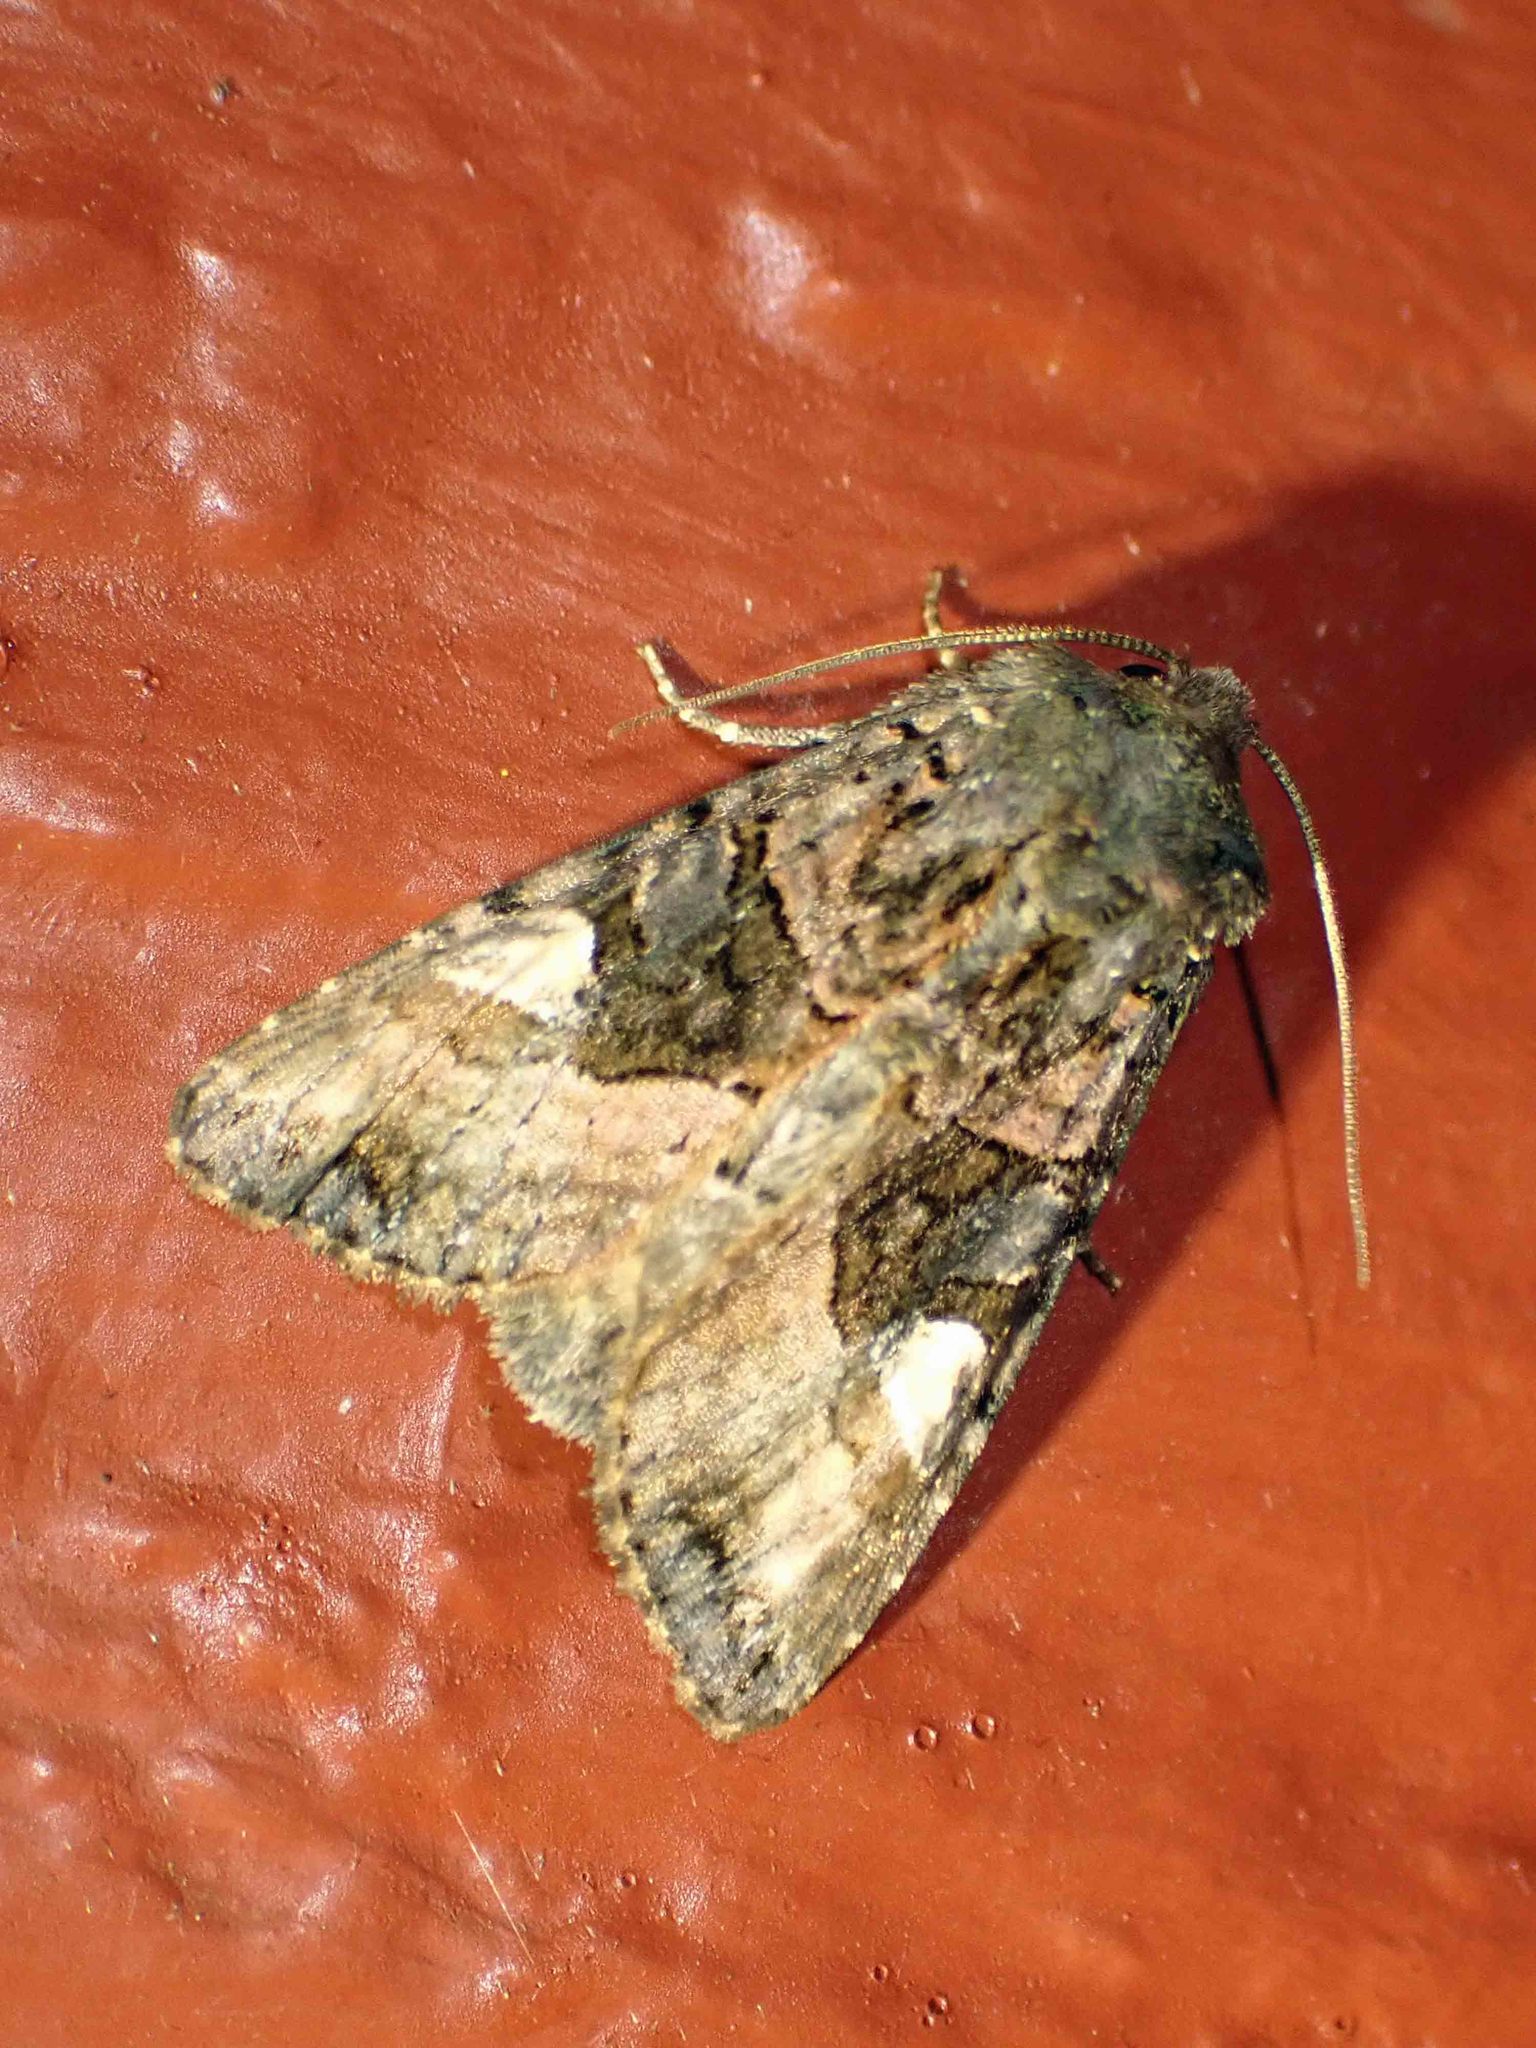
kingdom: Animalia
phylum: Arthropoda
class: Insecta
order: Lepidoptera
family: Noctuidae
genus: Euplexia
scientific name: Euplexia benesimilis
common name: American angle shades
